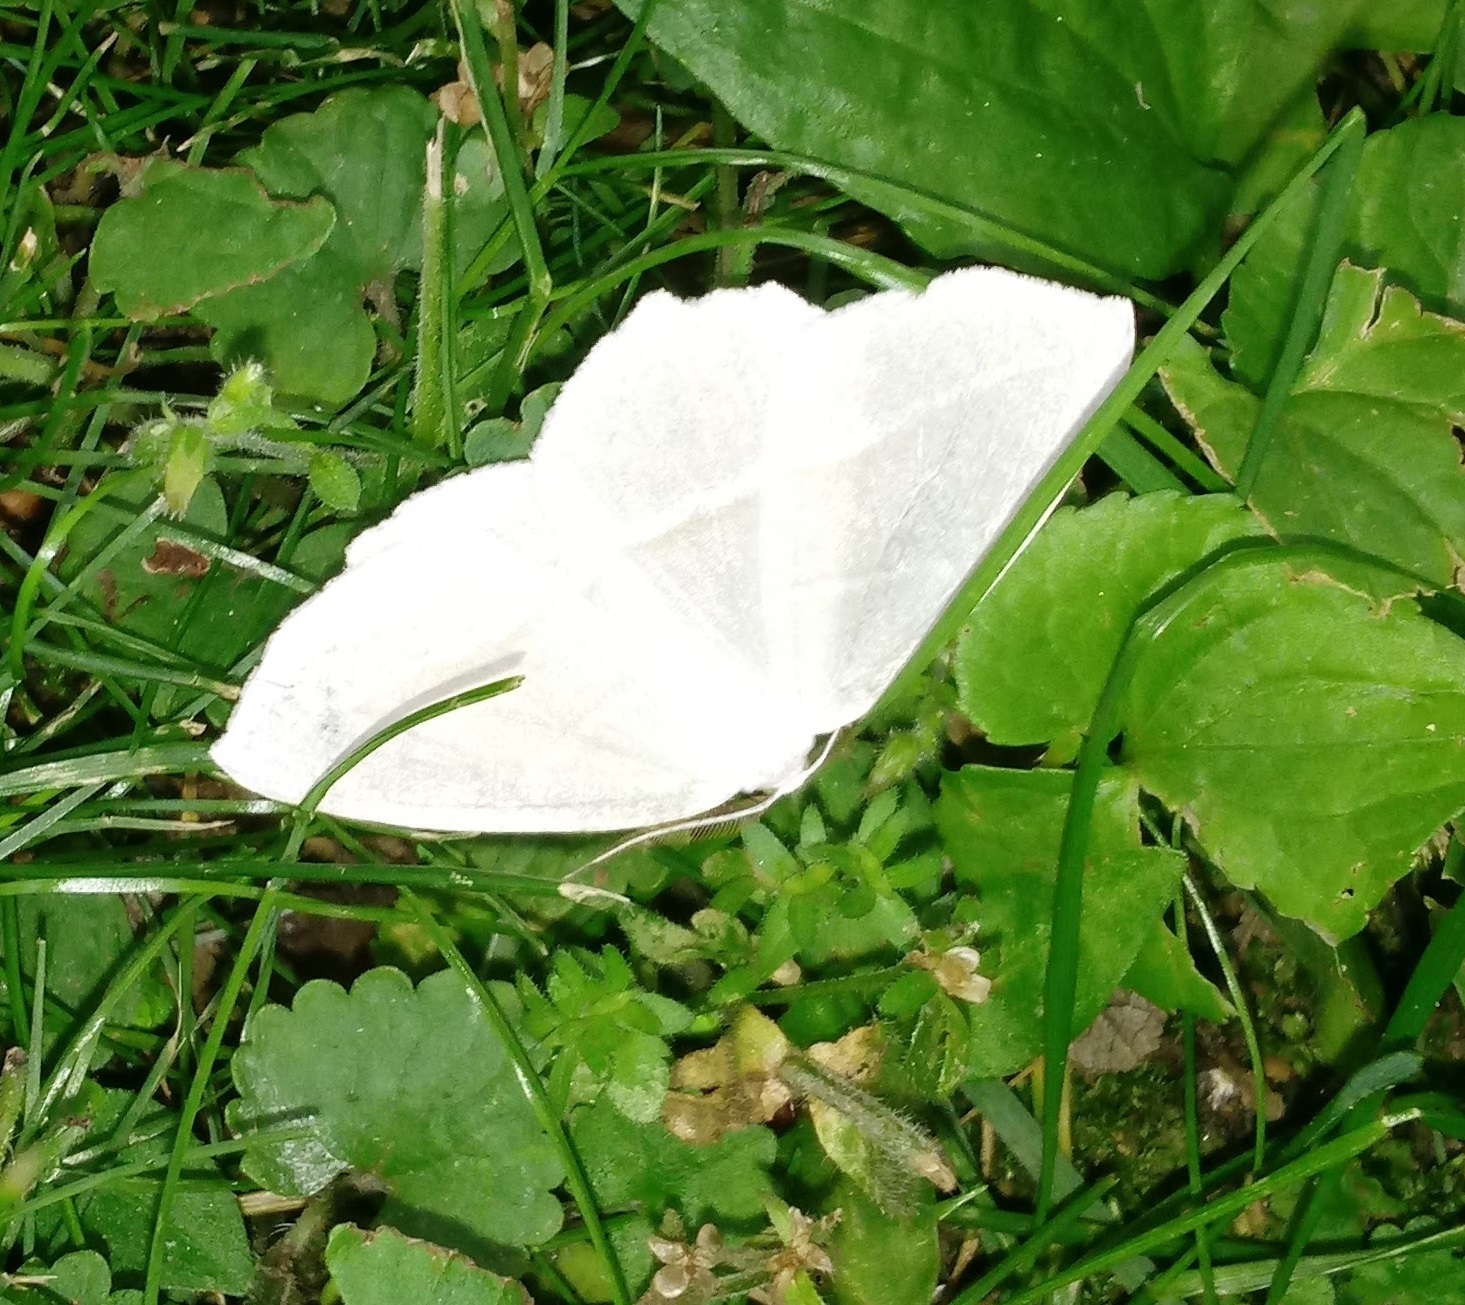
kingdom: Animalia
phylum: Arthropoda
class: Insecta
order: Lepidoptera
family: Geometridae
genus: Campaea
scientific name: Campaea perlata
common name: Fringed looper
